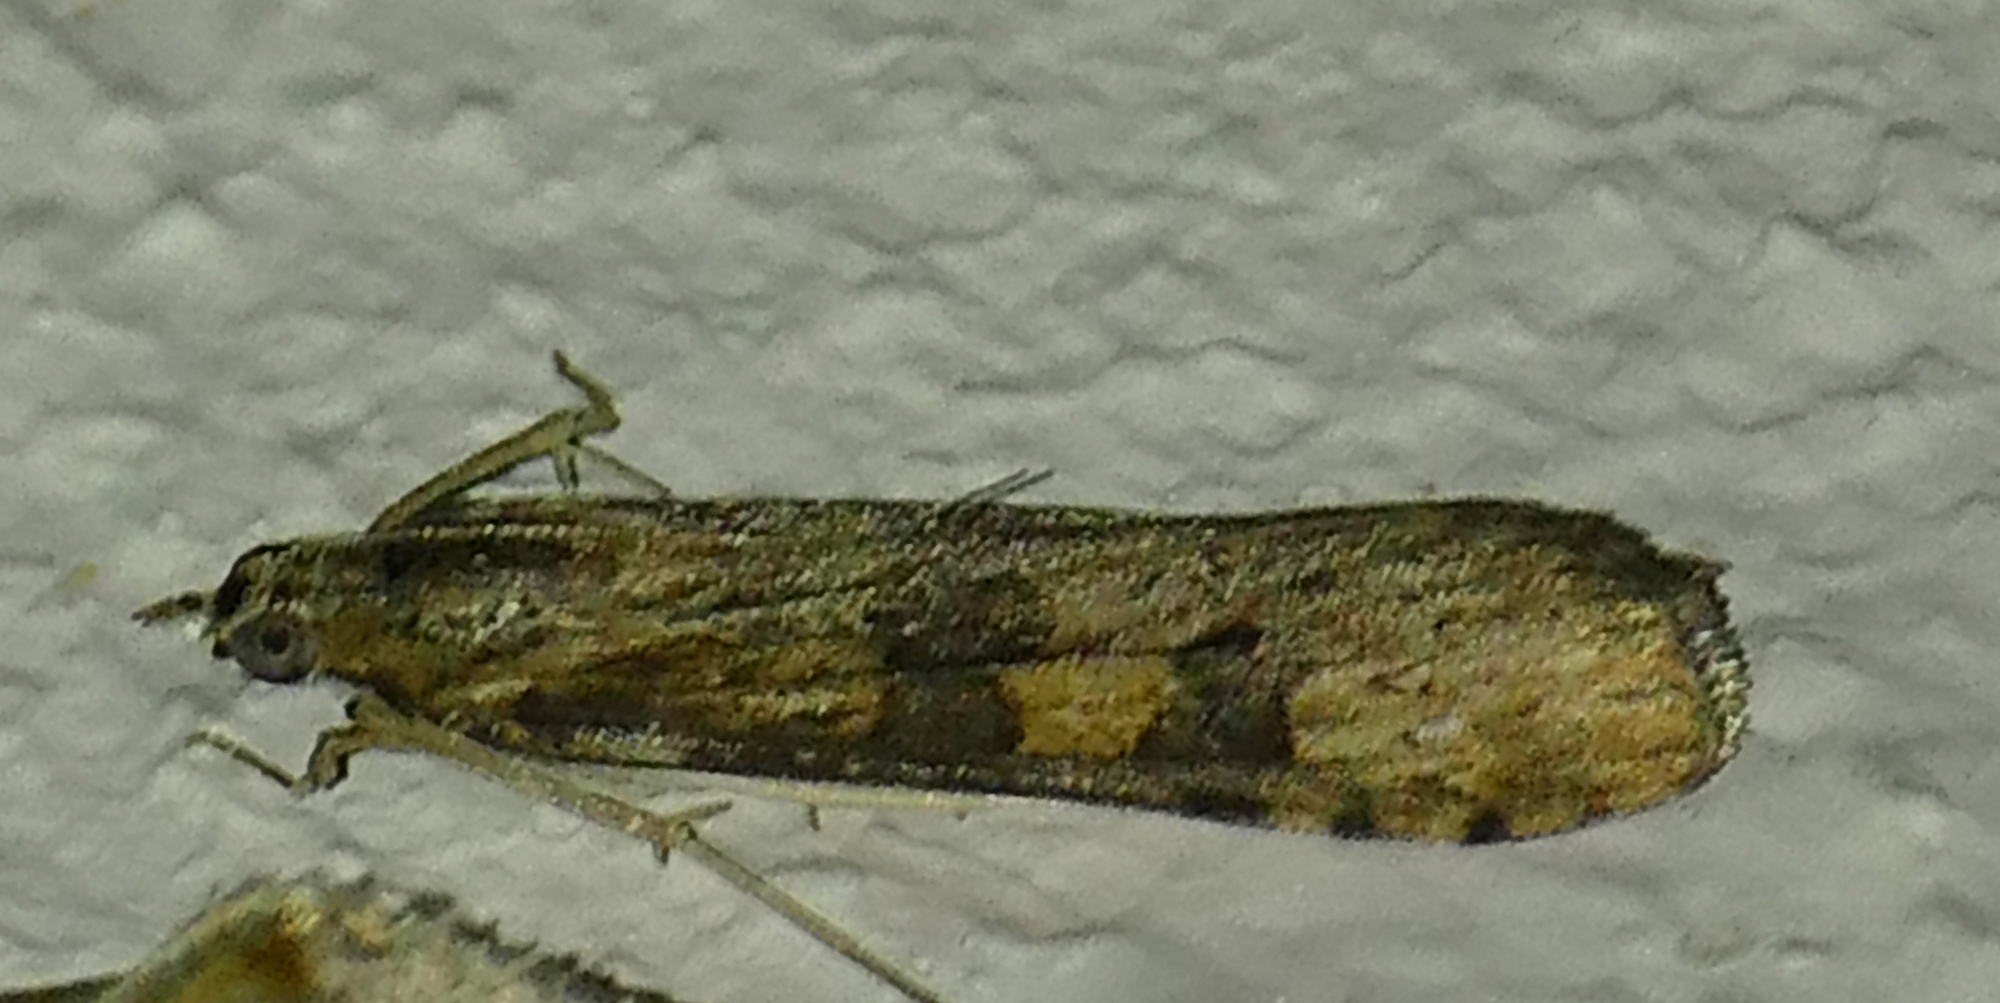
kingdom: Animalia
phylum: Arthropoda
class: Insecta
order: Lepidoptera
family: Crambidae
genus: Nomophila
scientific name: Nomophila nearctica
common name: American rush veneer
